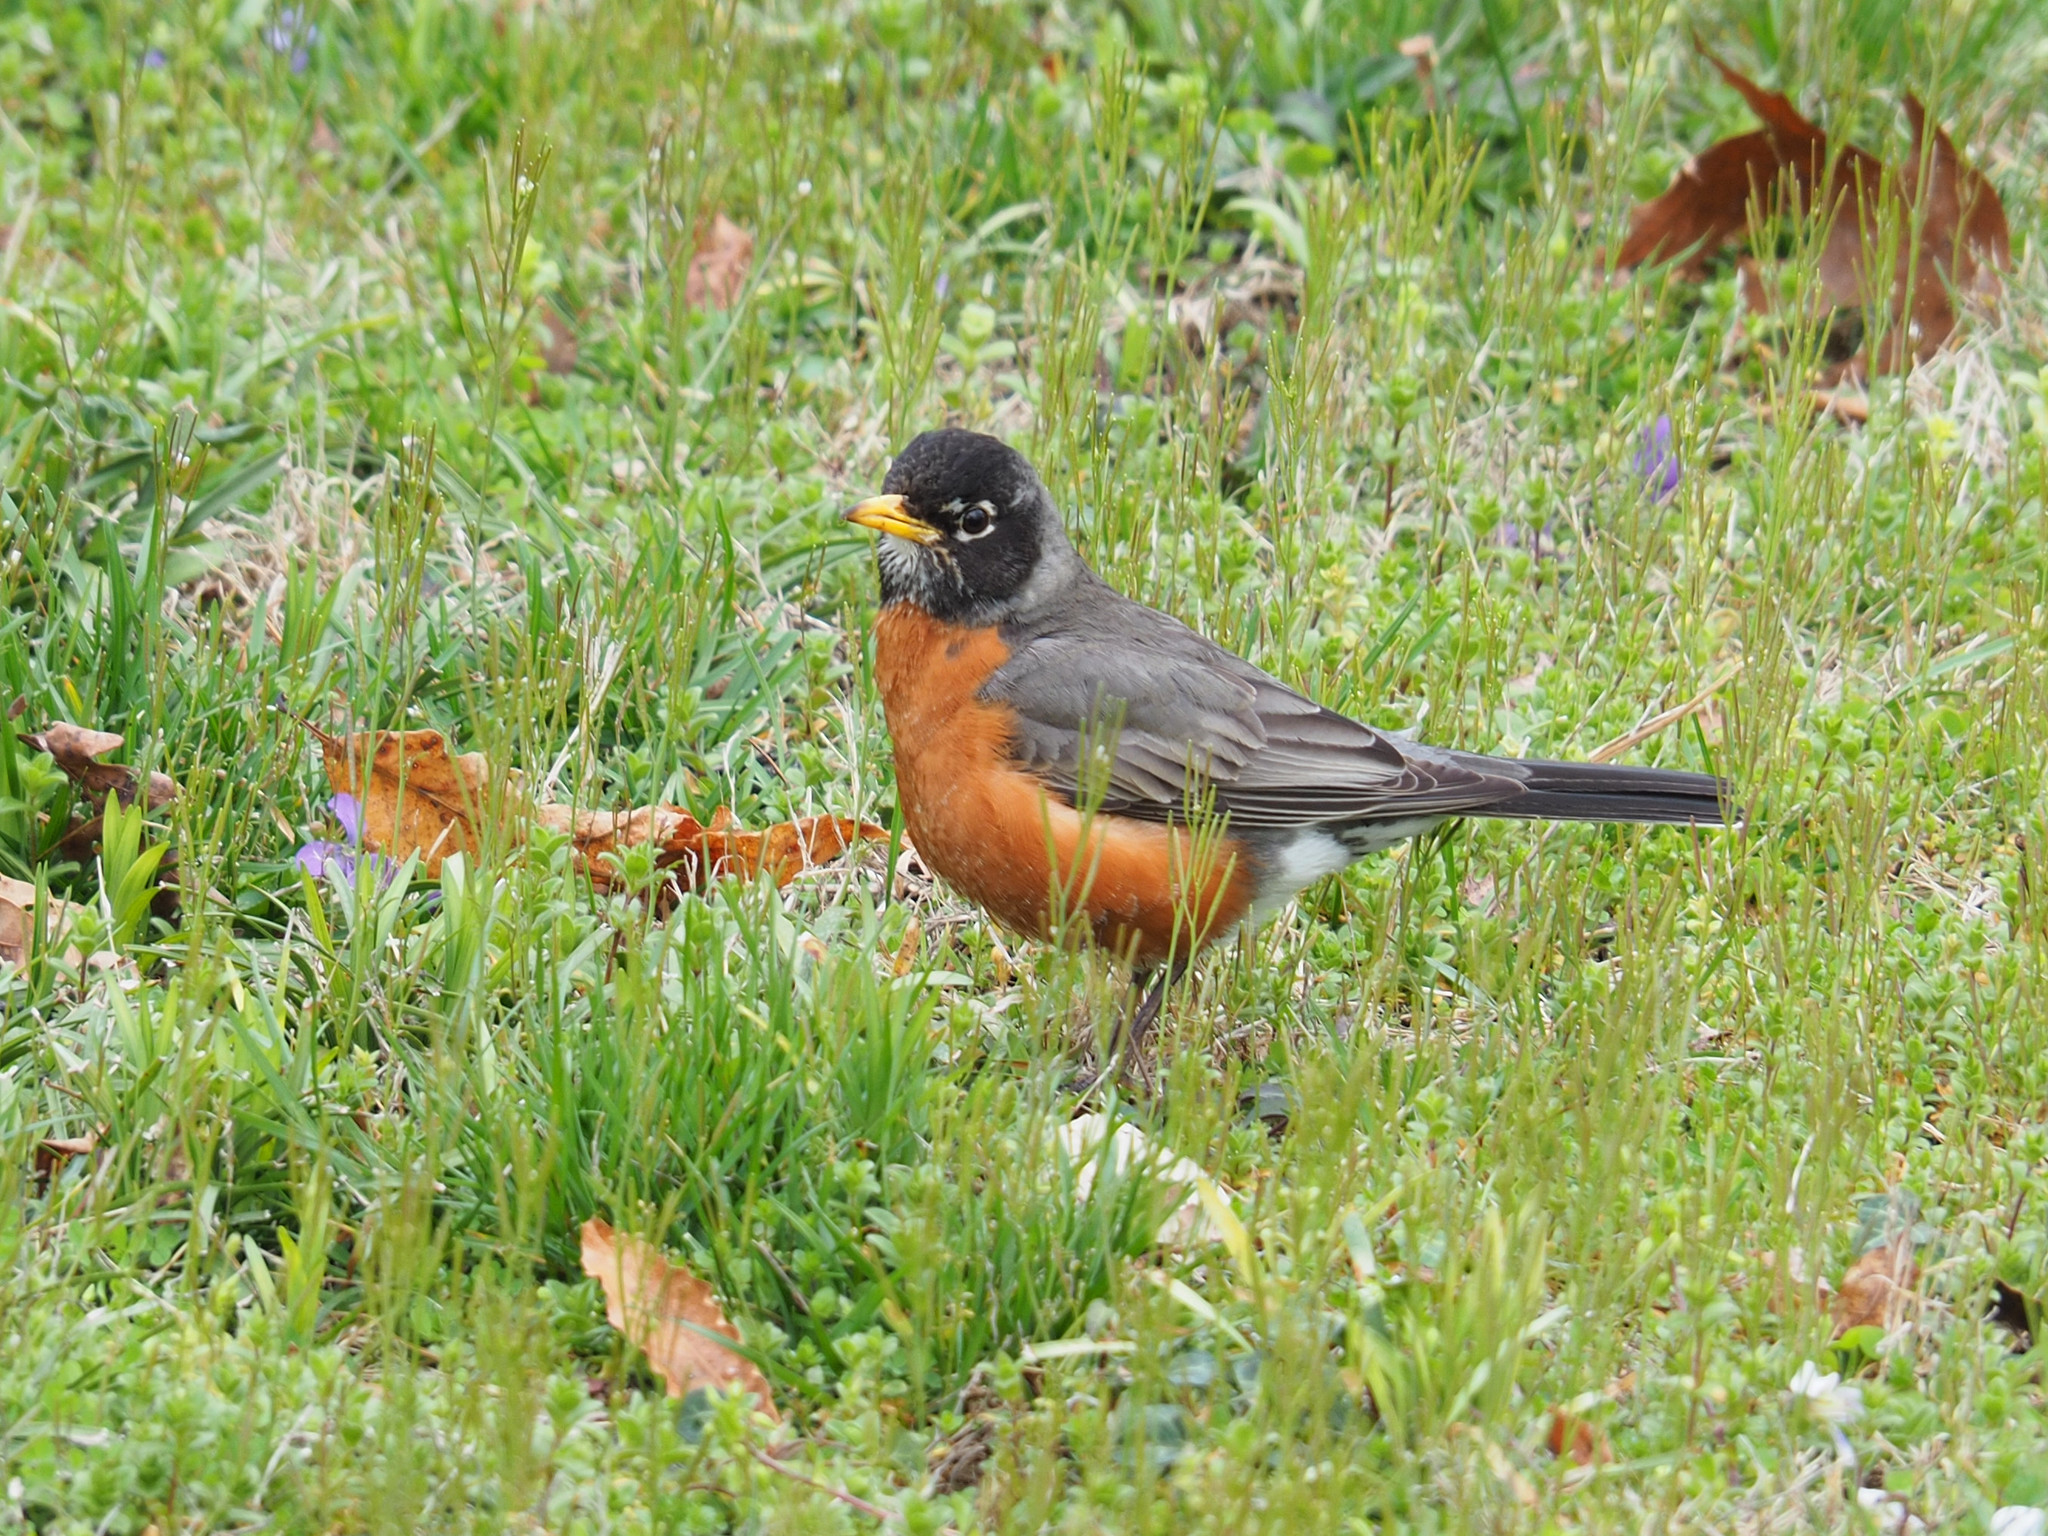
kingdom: Animalia
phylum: Chordata
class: Aves
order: Passeriformes
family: Turdidae
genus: Turdus
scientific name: Turdus migratorius
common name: American robin
